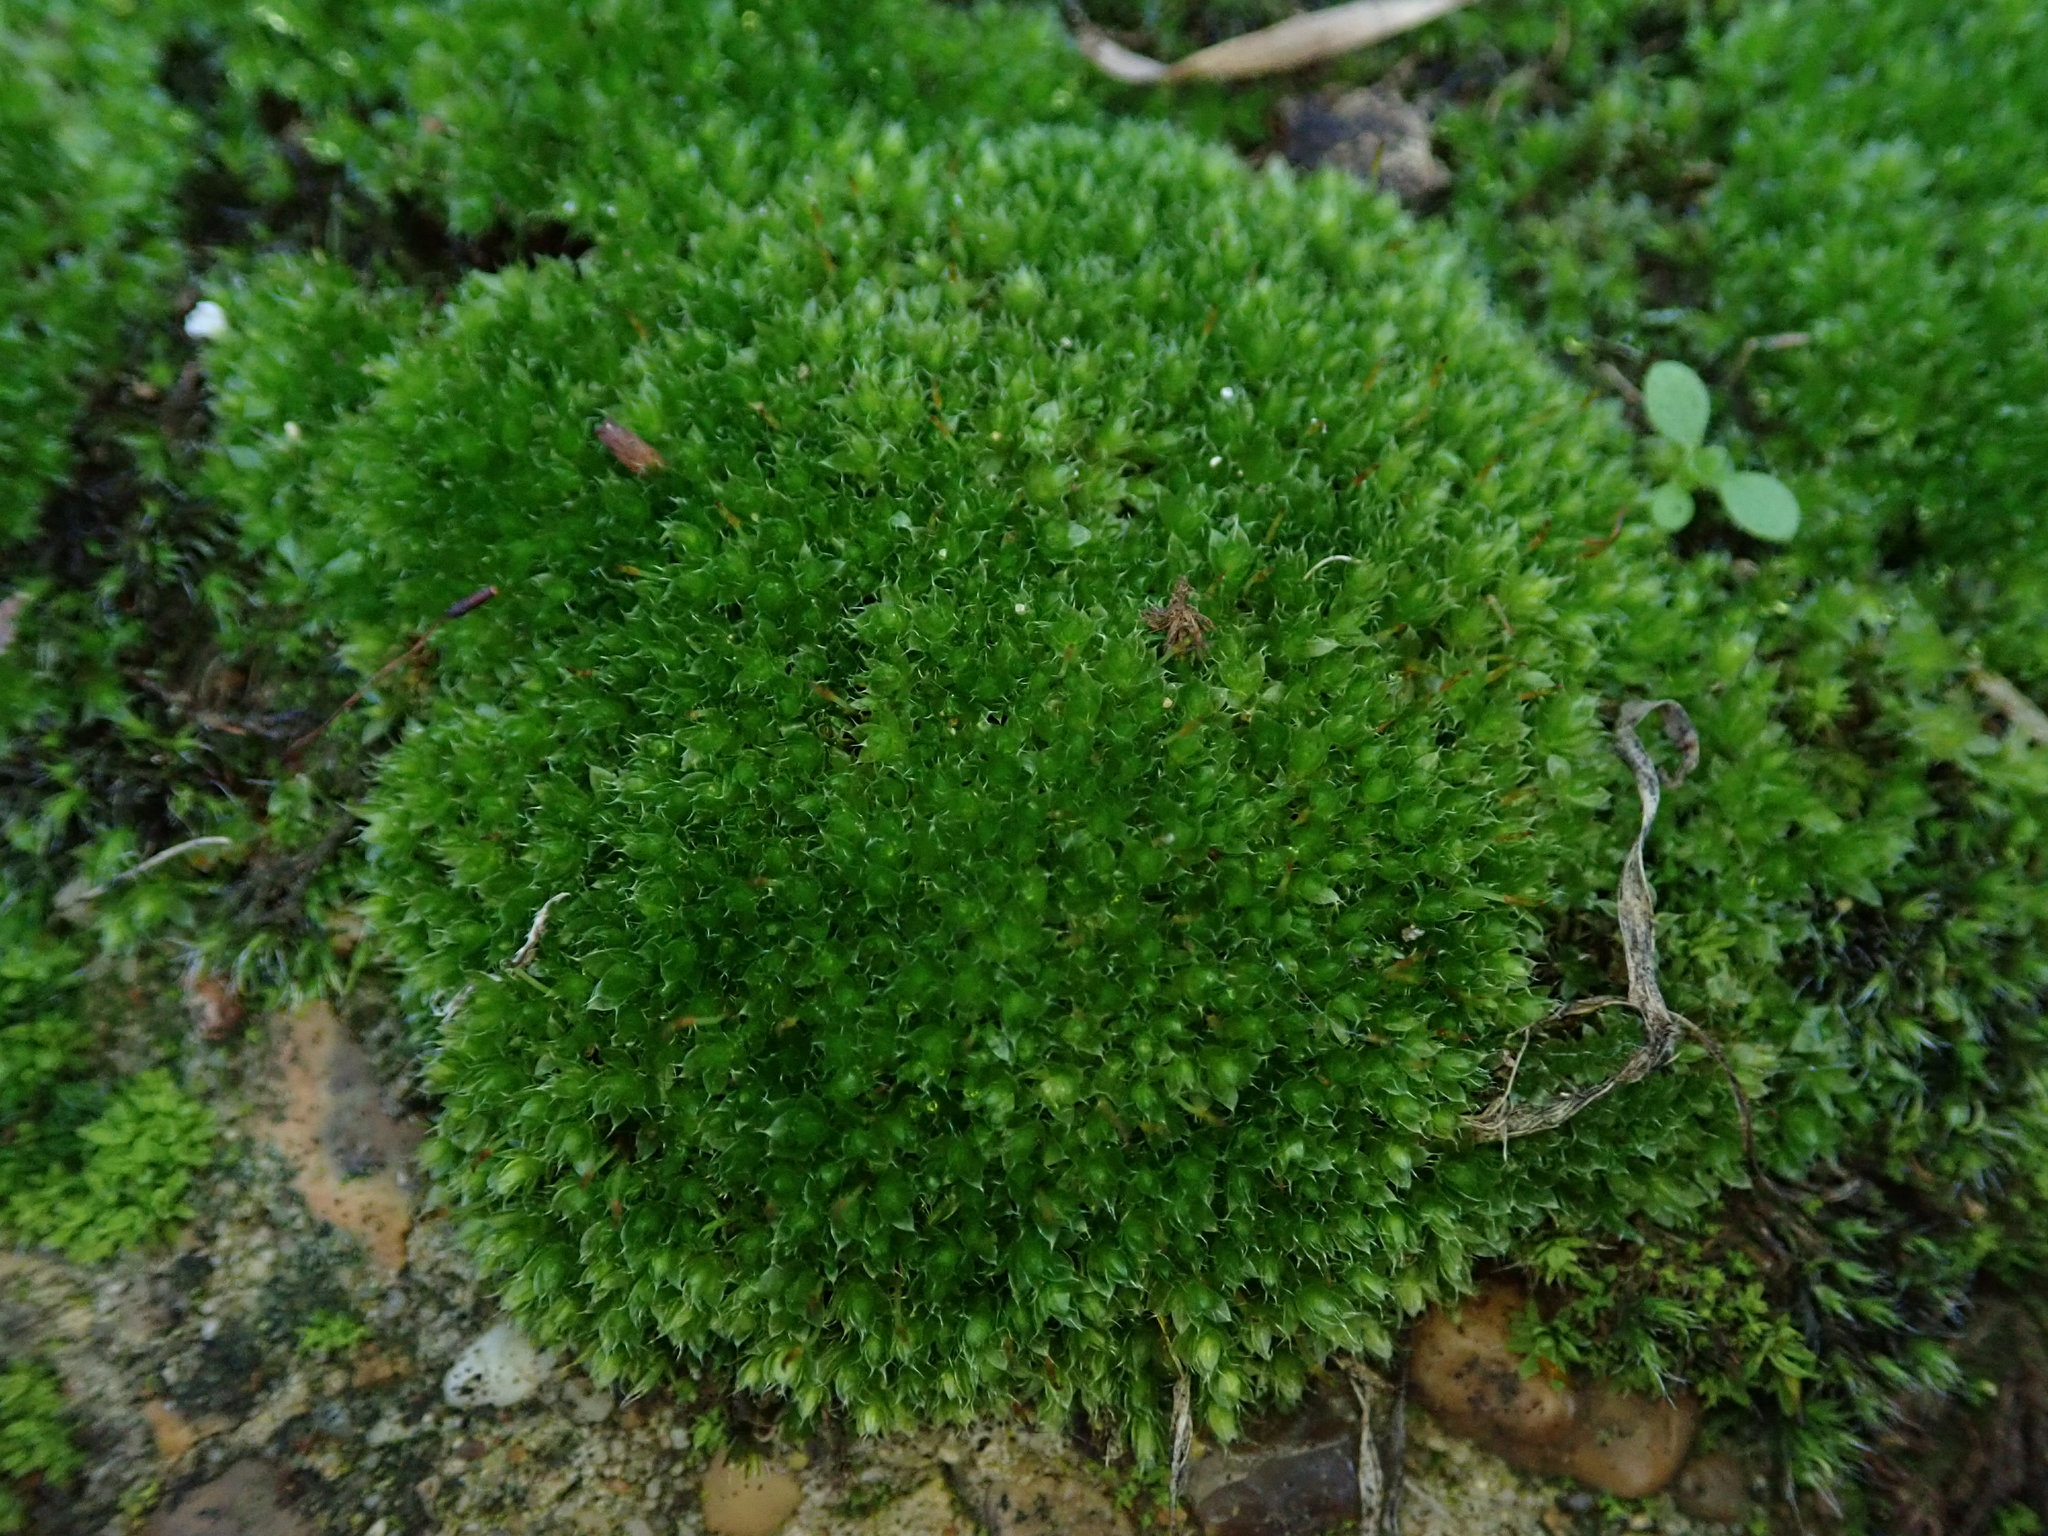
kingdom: Plantae
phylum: Bryophyta
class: Bryopsida
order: Bryales
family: Bryaceae
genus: Rosulabryum
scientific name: Rosulabryum capillare
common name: Capillary thread-moss
